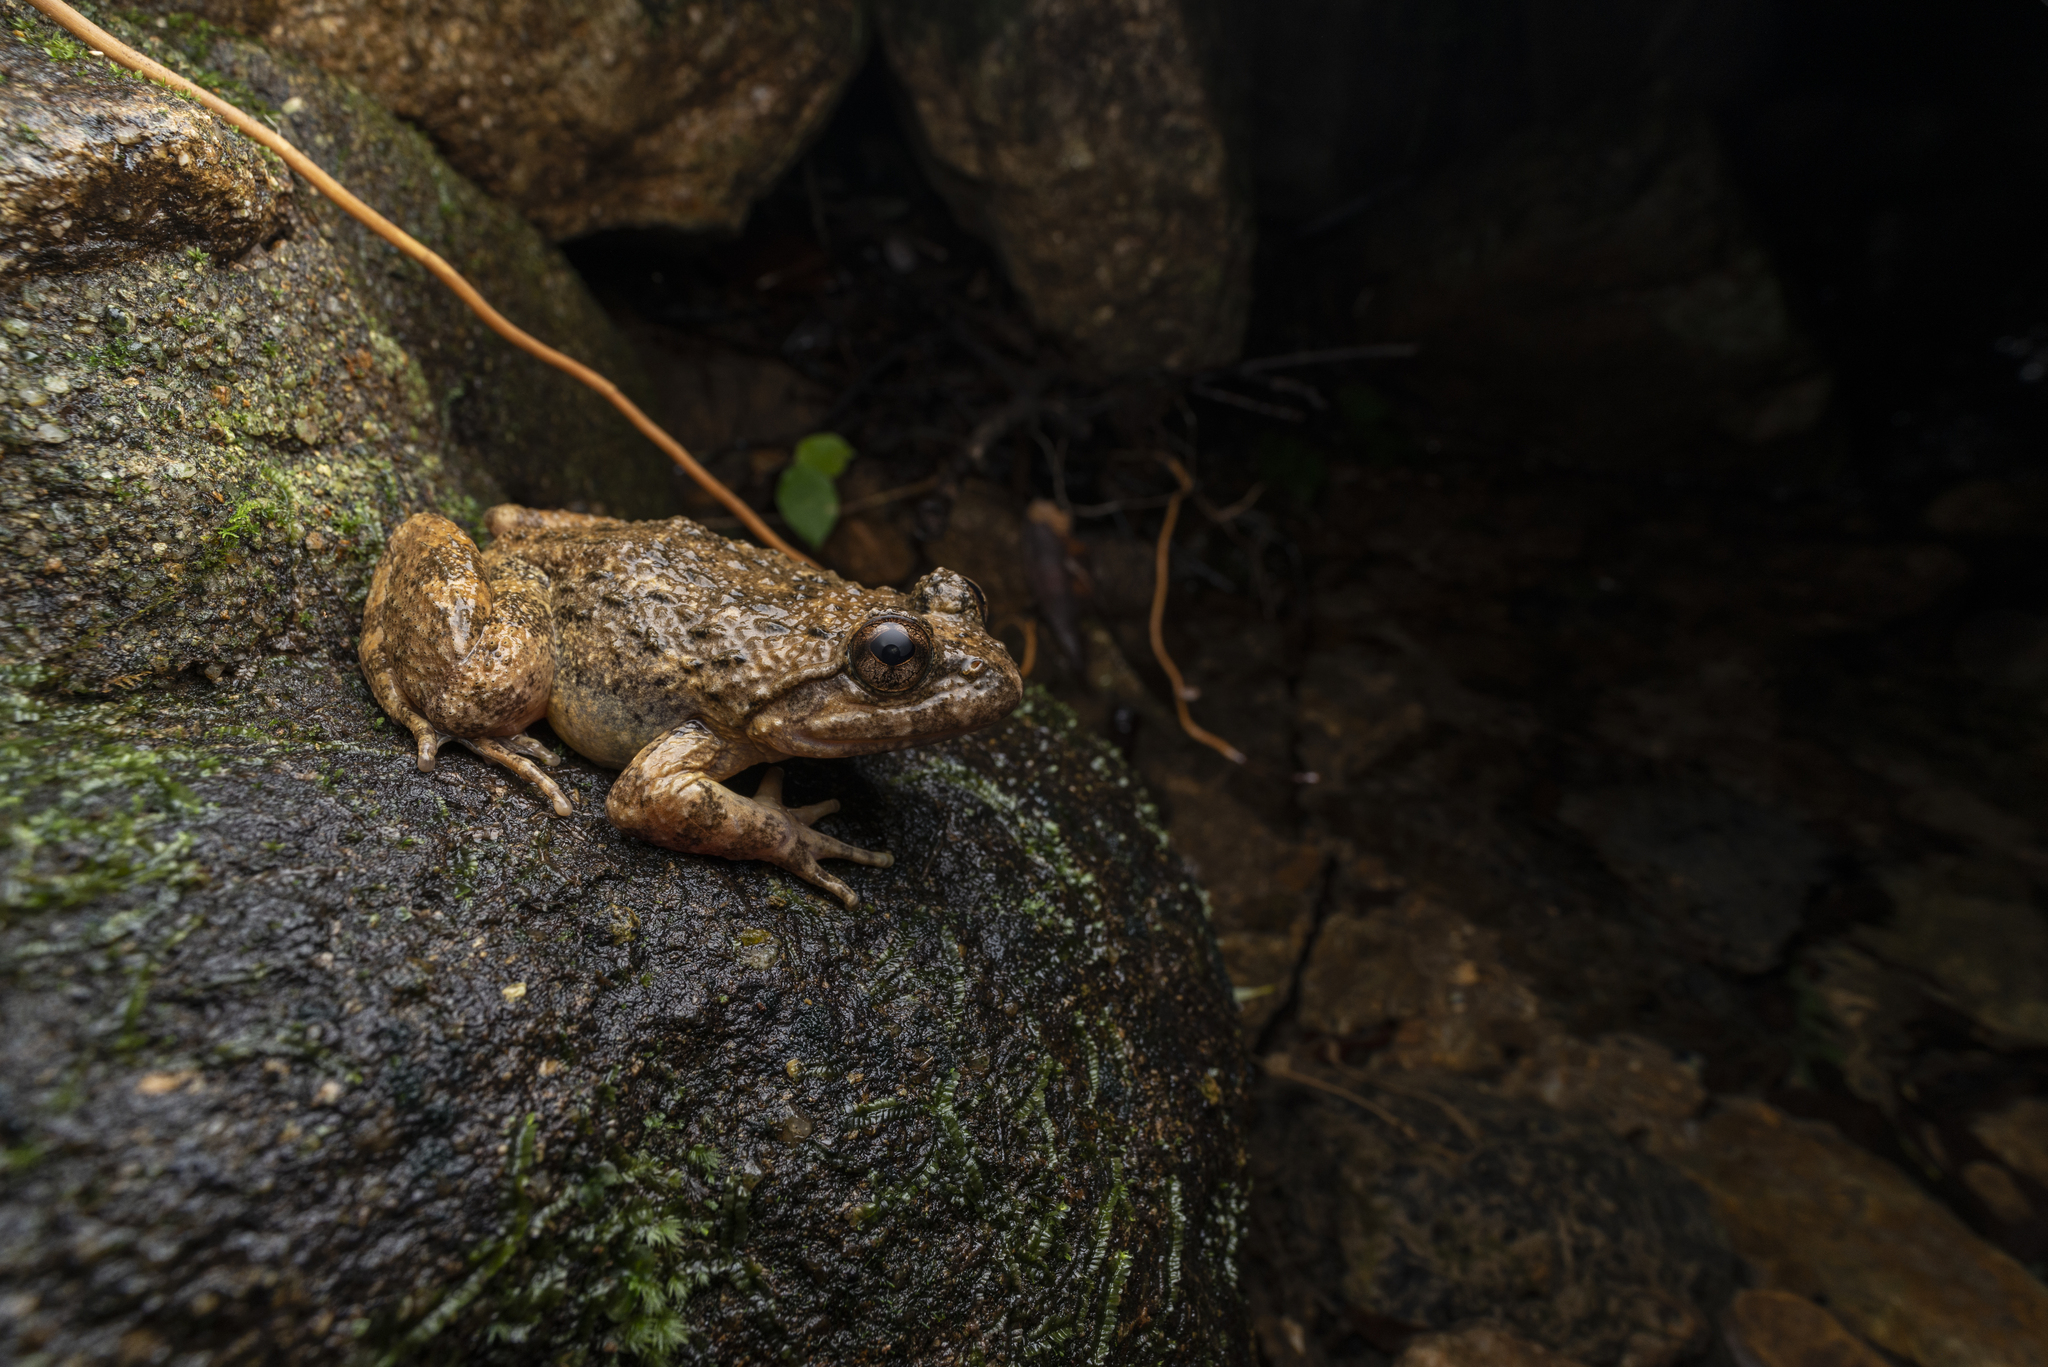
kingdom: Animalia
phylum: Chordata
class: Amphibia
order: Anura
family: Dicroglossidae
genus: Quasipaa
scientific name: Quasipaa exilispinosa
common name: Hong kong paa frog
